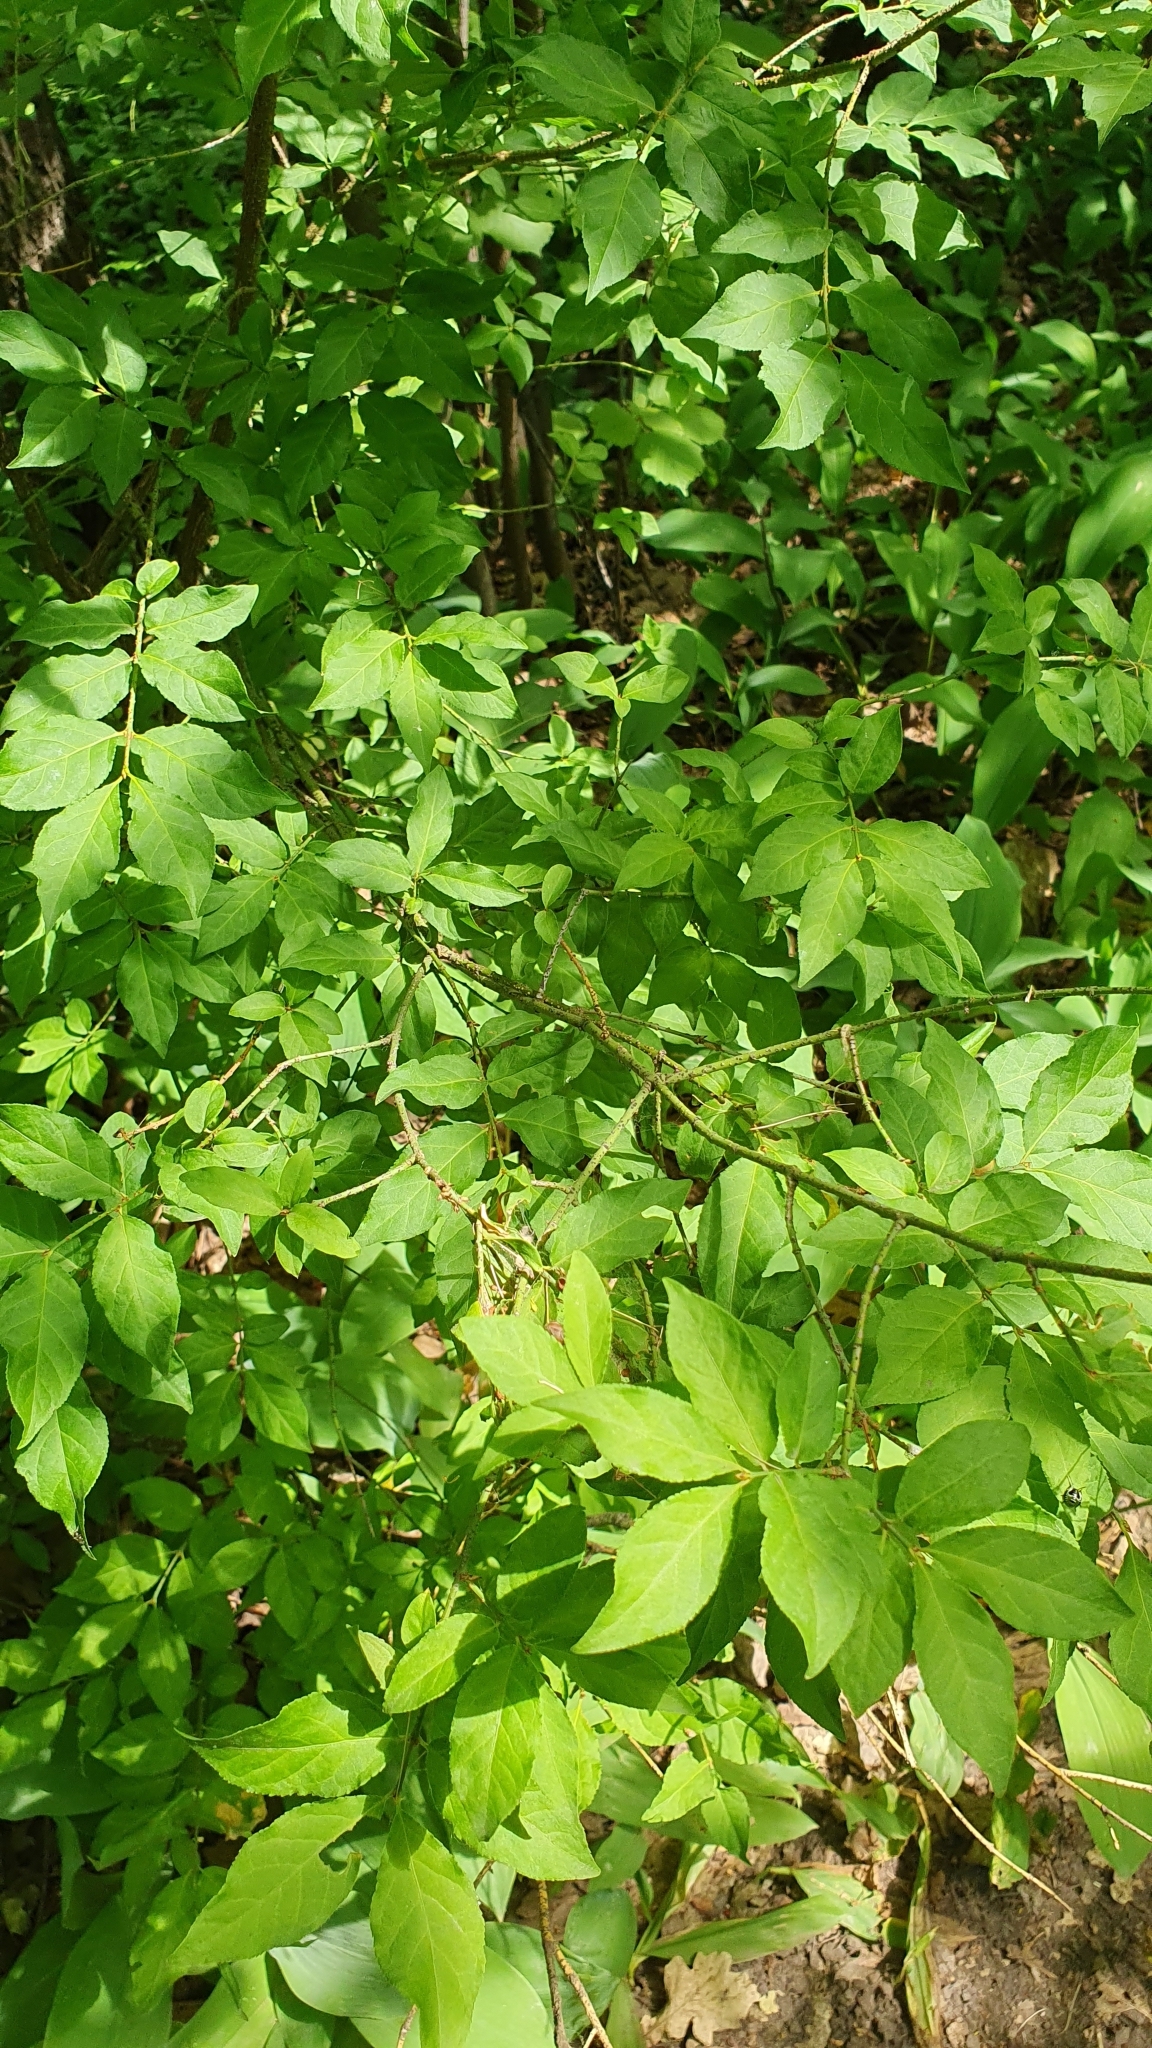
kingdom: Plantae
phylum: Tracheophyta
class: Magnoliopsida
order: Celastrales
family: Celastraceae
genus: Euonymus
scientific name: Euonymus verrucosus
